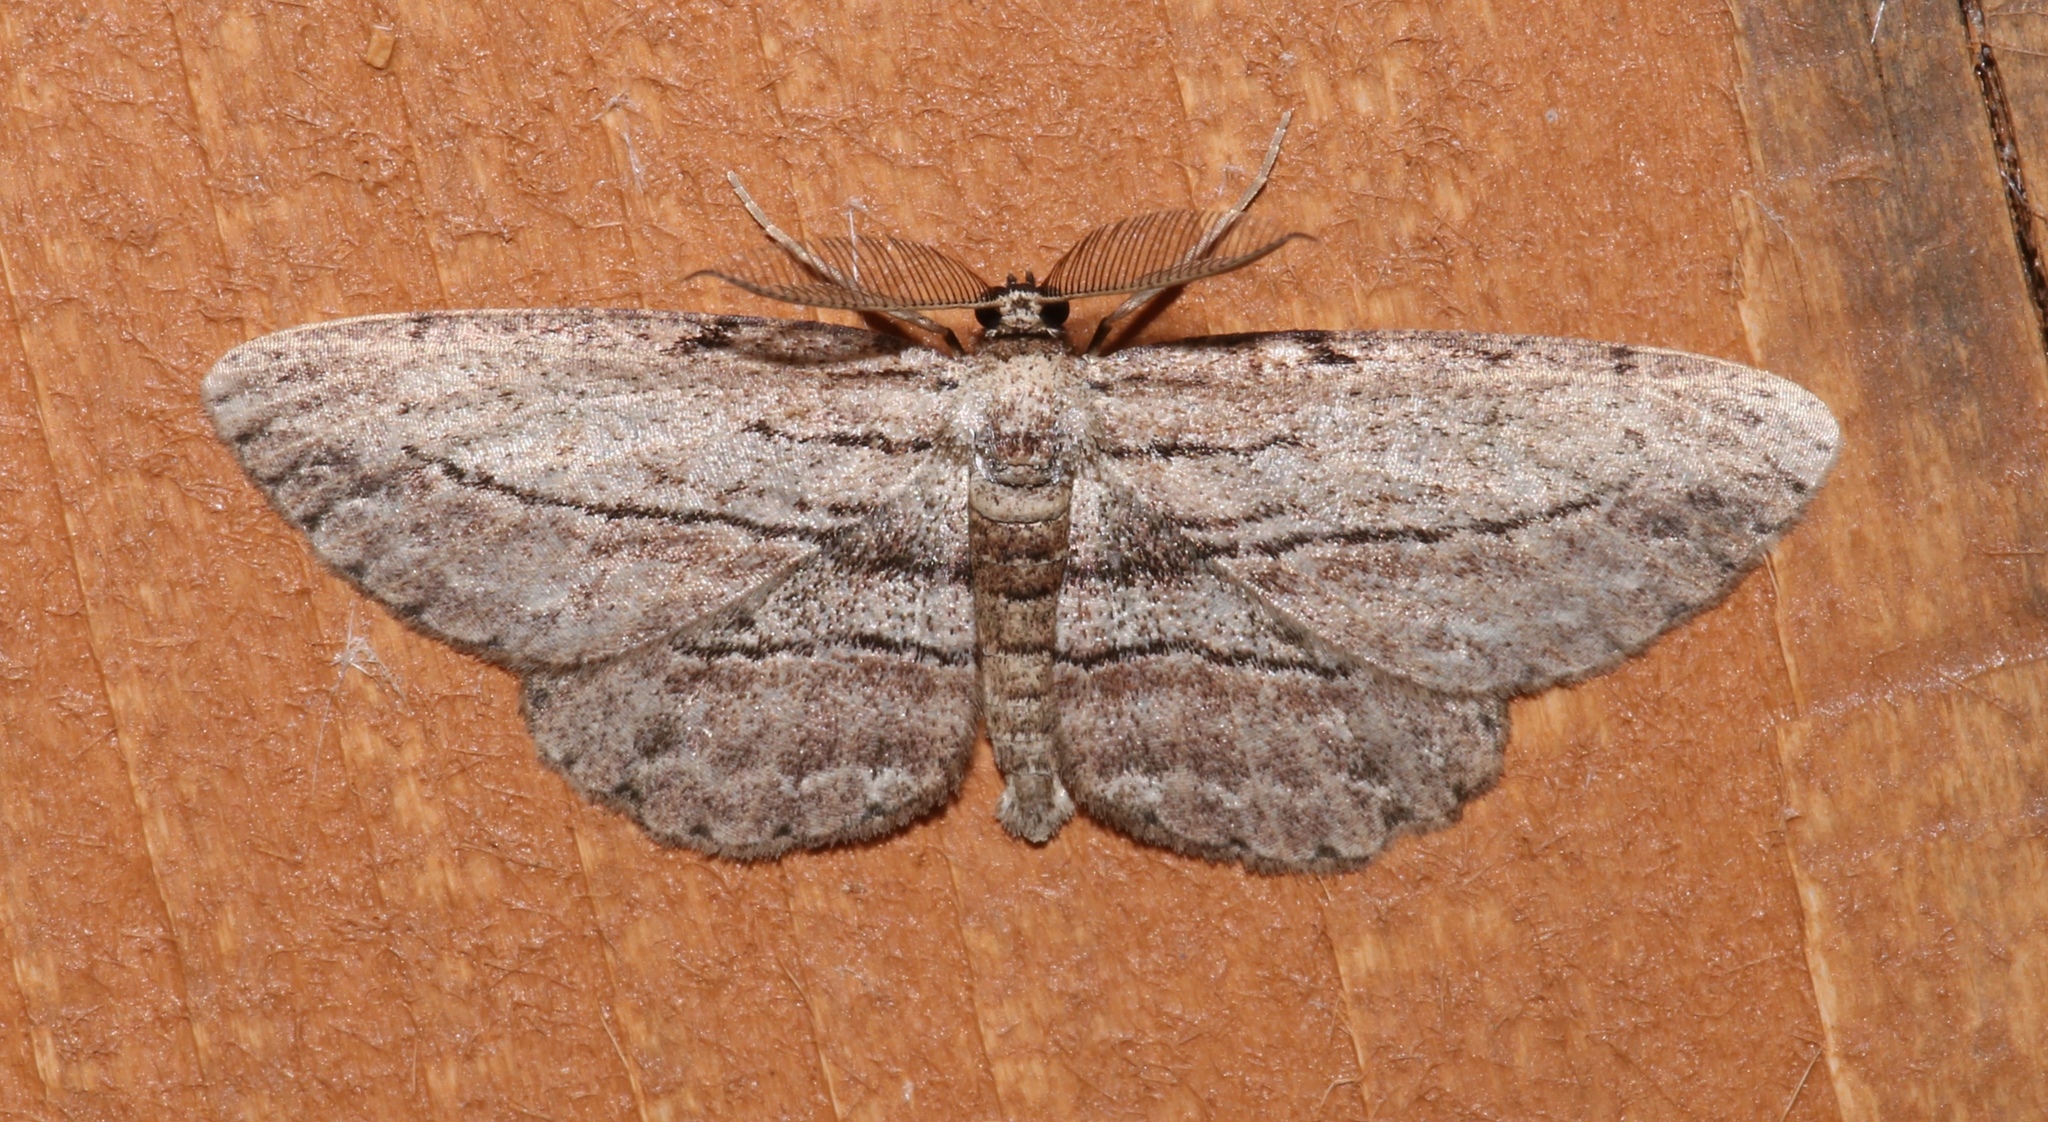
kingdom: Animalia
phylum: Arthropoda
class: Insecta
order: Lepidoptera
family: Geometridae
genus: Glena
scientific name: Glena plumosaria
